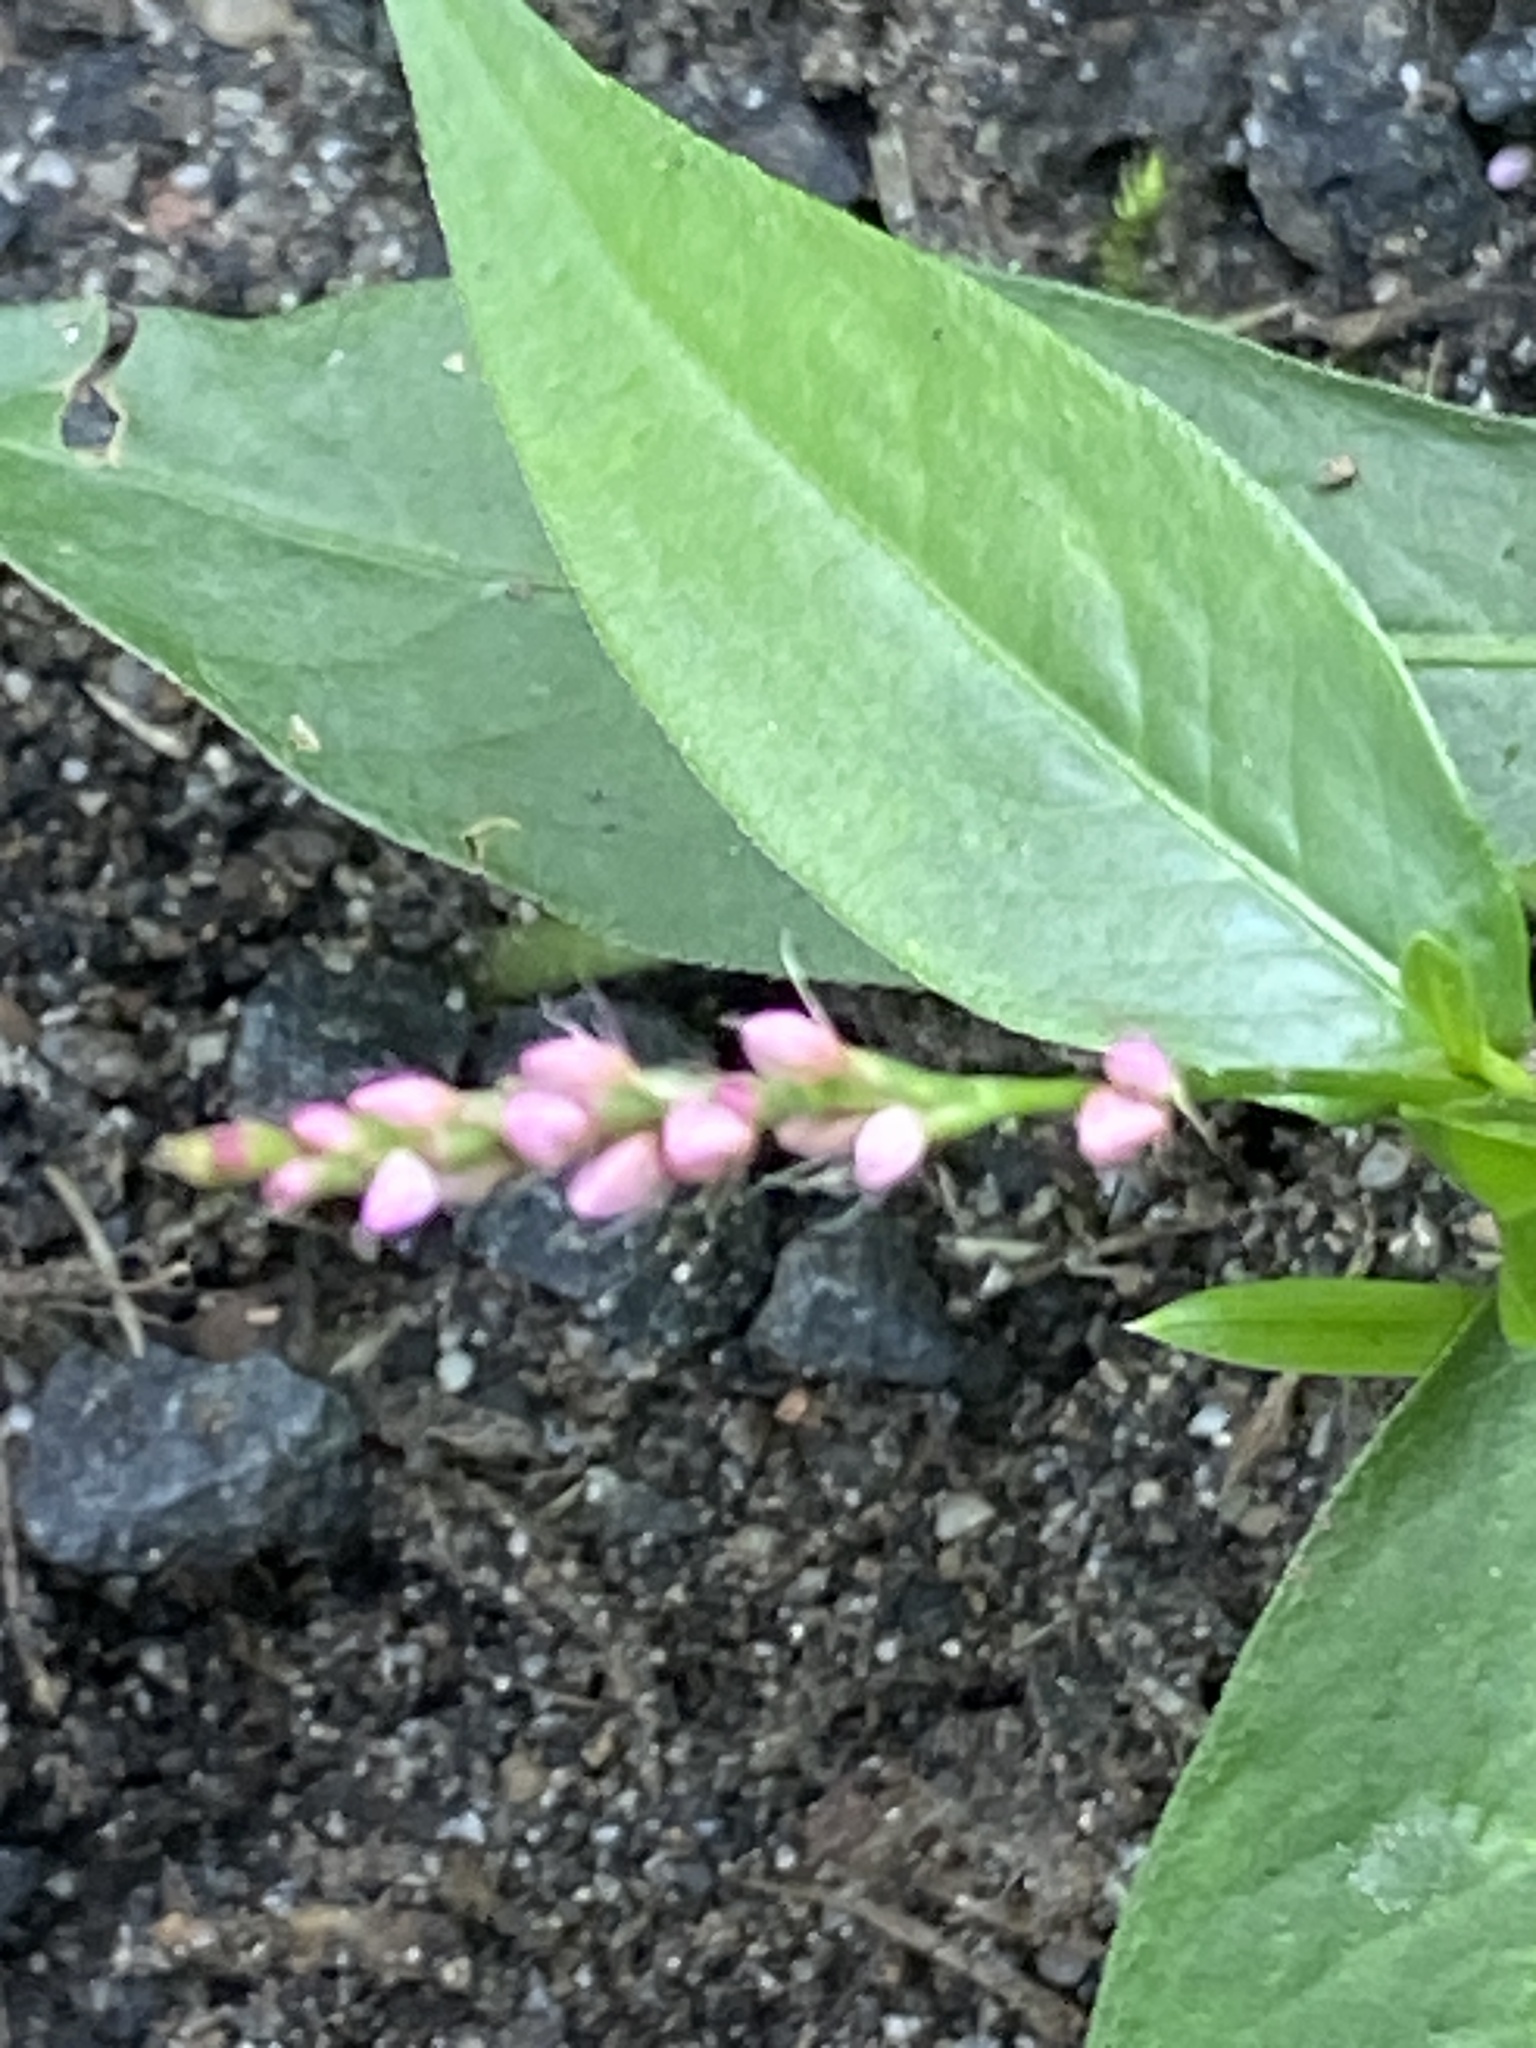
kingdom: Plantae
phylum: Tracheophyta
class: Magnoliopsida
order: Caryophyllales
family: Polygonaceae
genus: Persicaria
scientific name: Persicaria longiseta
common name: Bristly lady's-thumb
